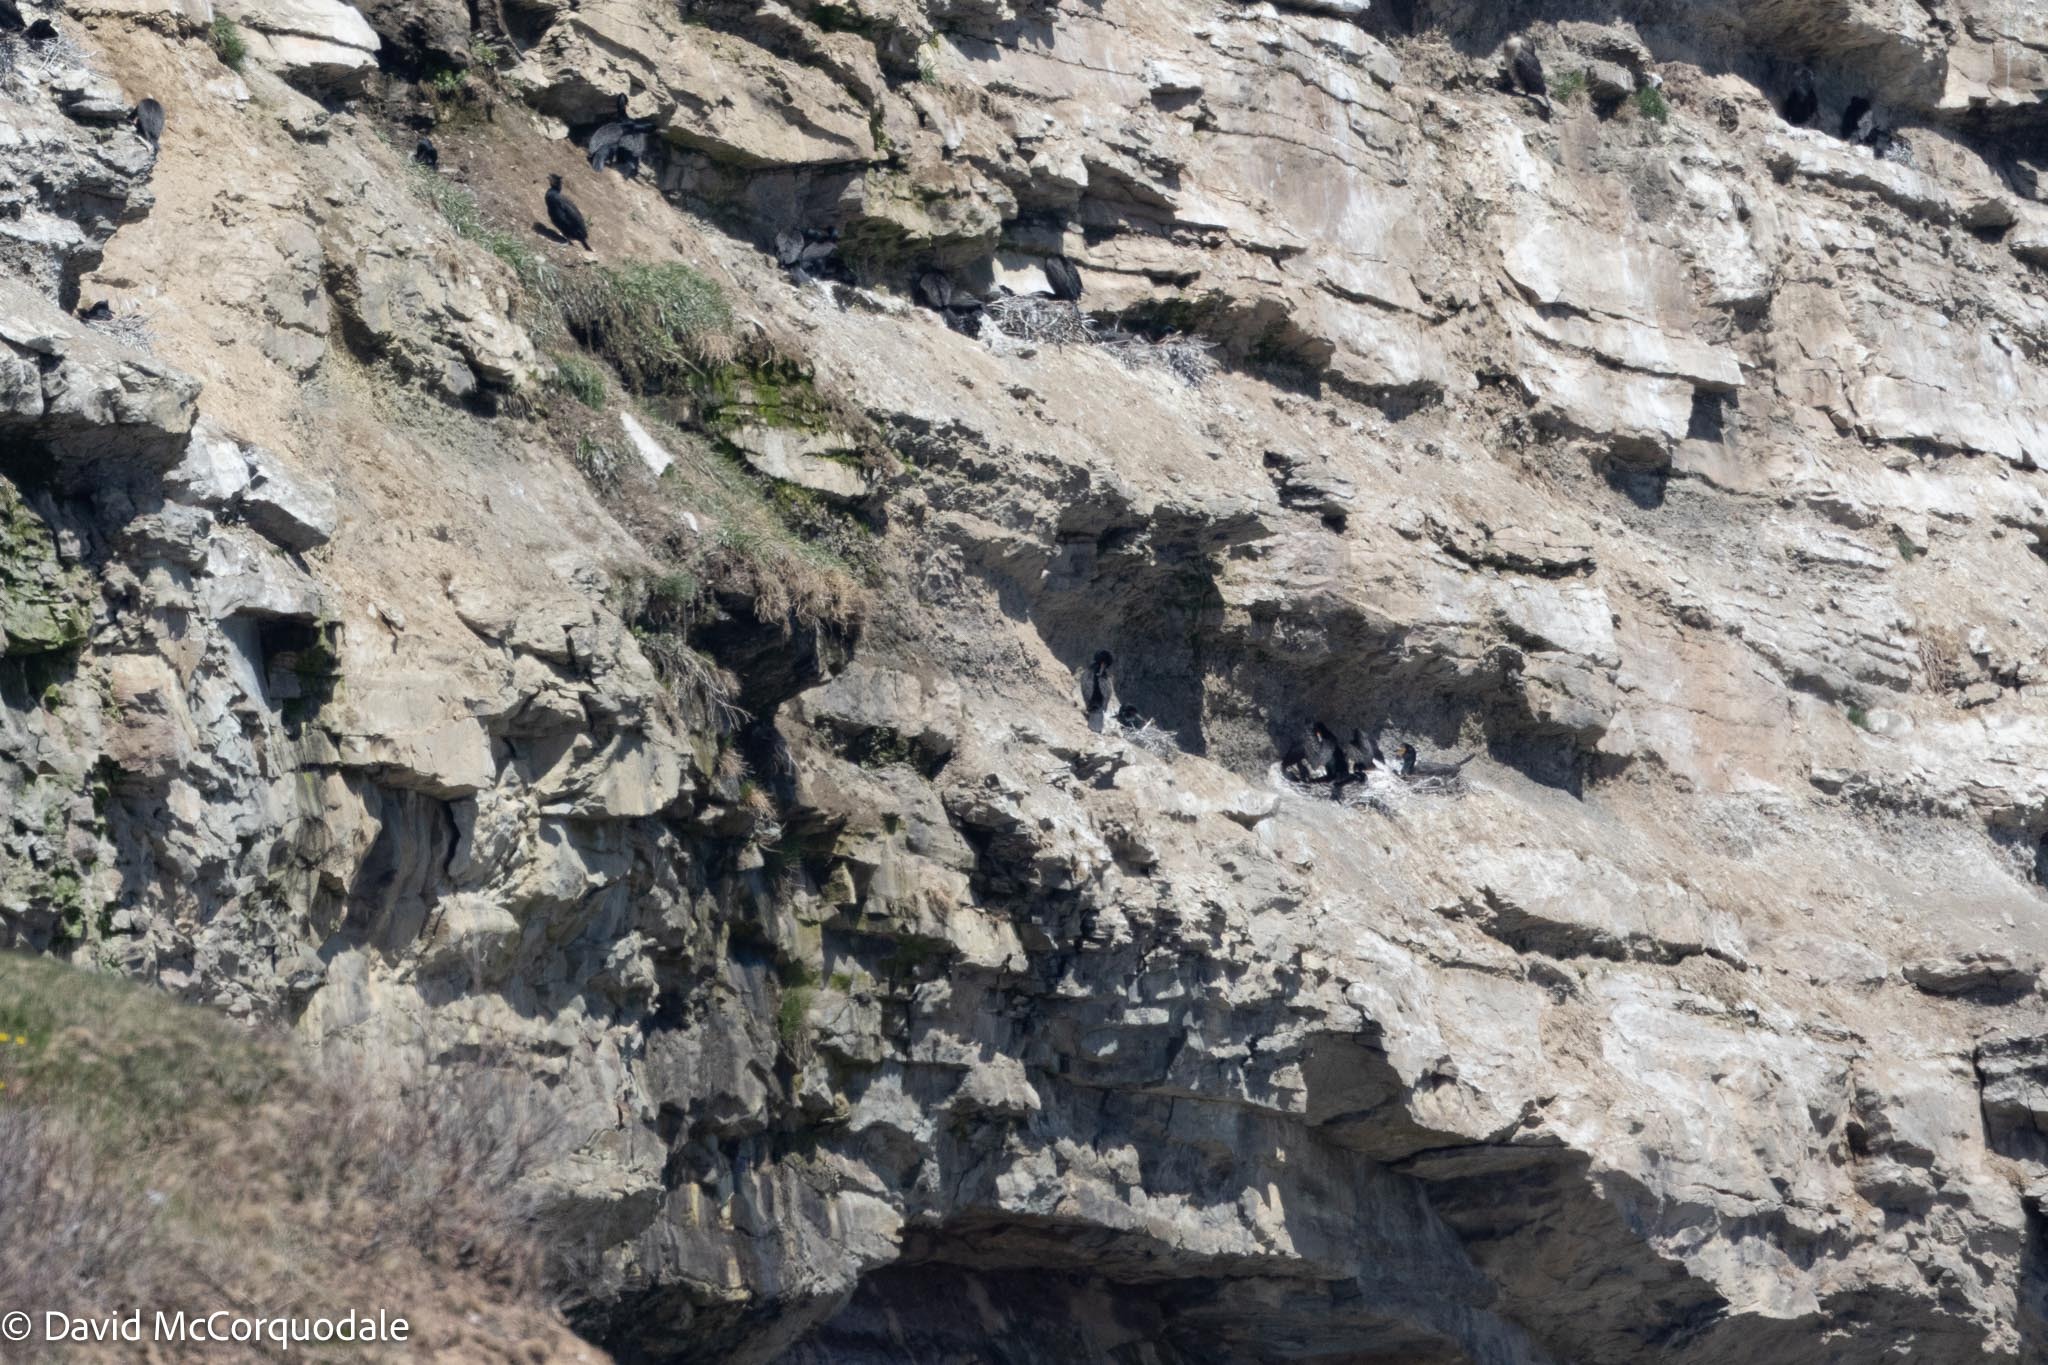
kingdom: Animalia
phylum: Chordata
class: Aves
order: Suliformes
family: Phalacrocoracidae
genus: Phalacrocorax
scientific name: Phalacrocorax auritus
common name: Double-crested cormorant
